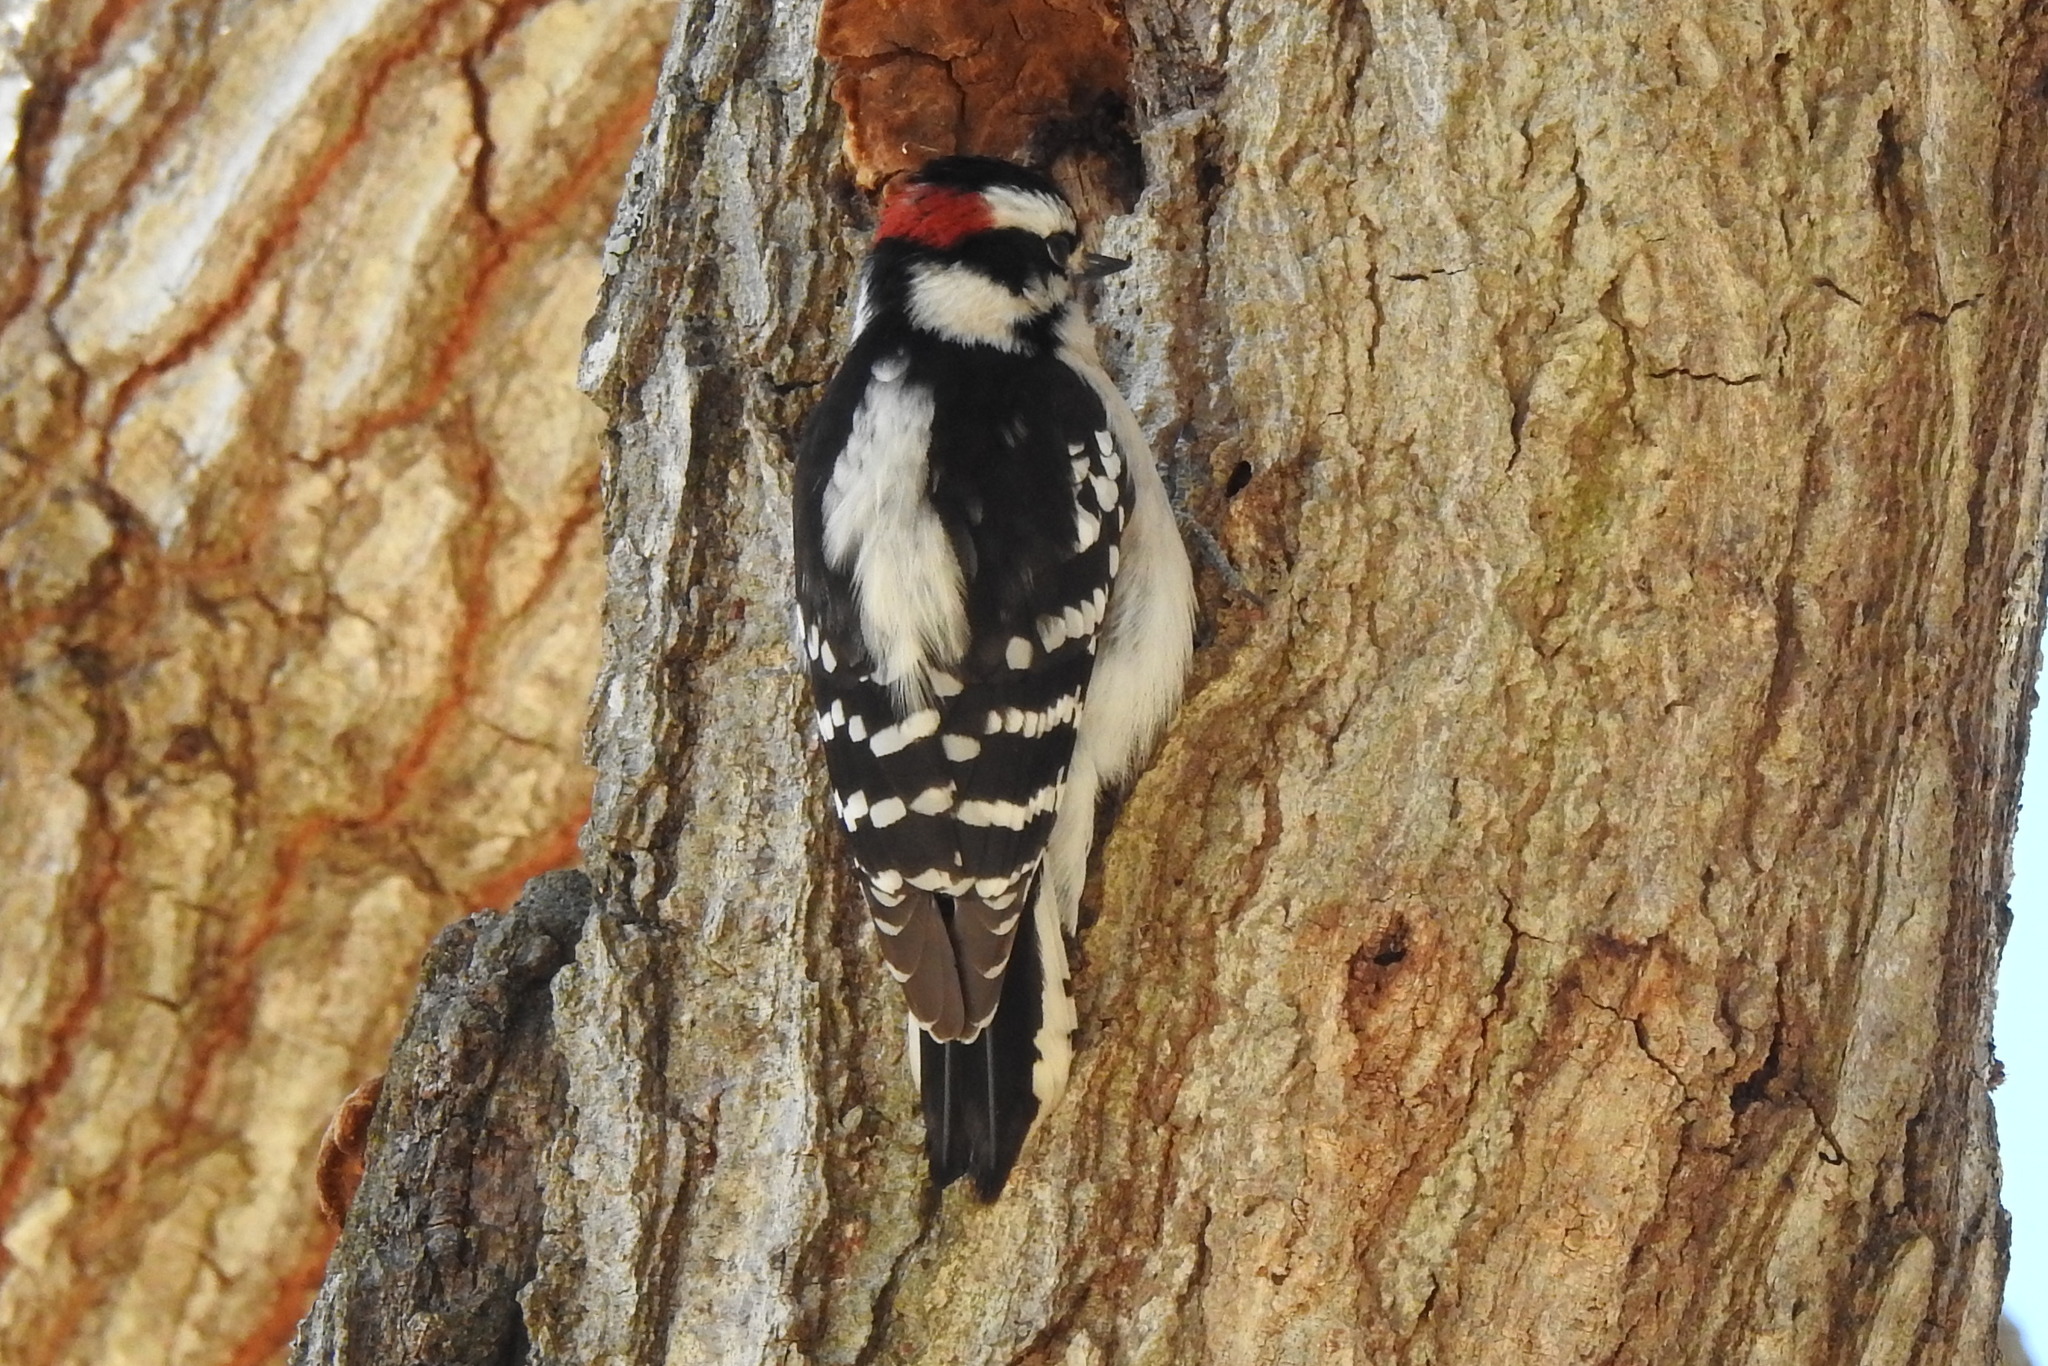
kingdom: Animalia
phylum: Chordata
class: Aves
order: Piciformes
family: Picidae
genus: Dryobates
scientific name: Dryobates pubescens
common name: Downy woodpecker
